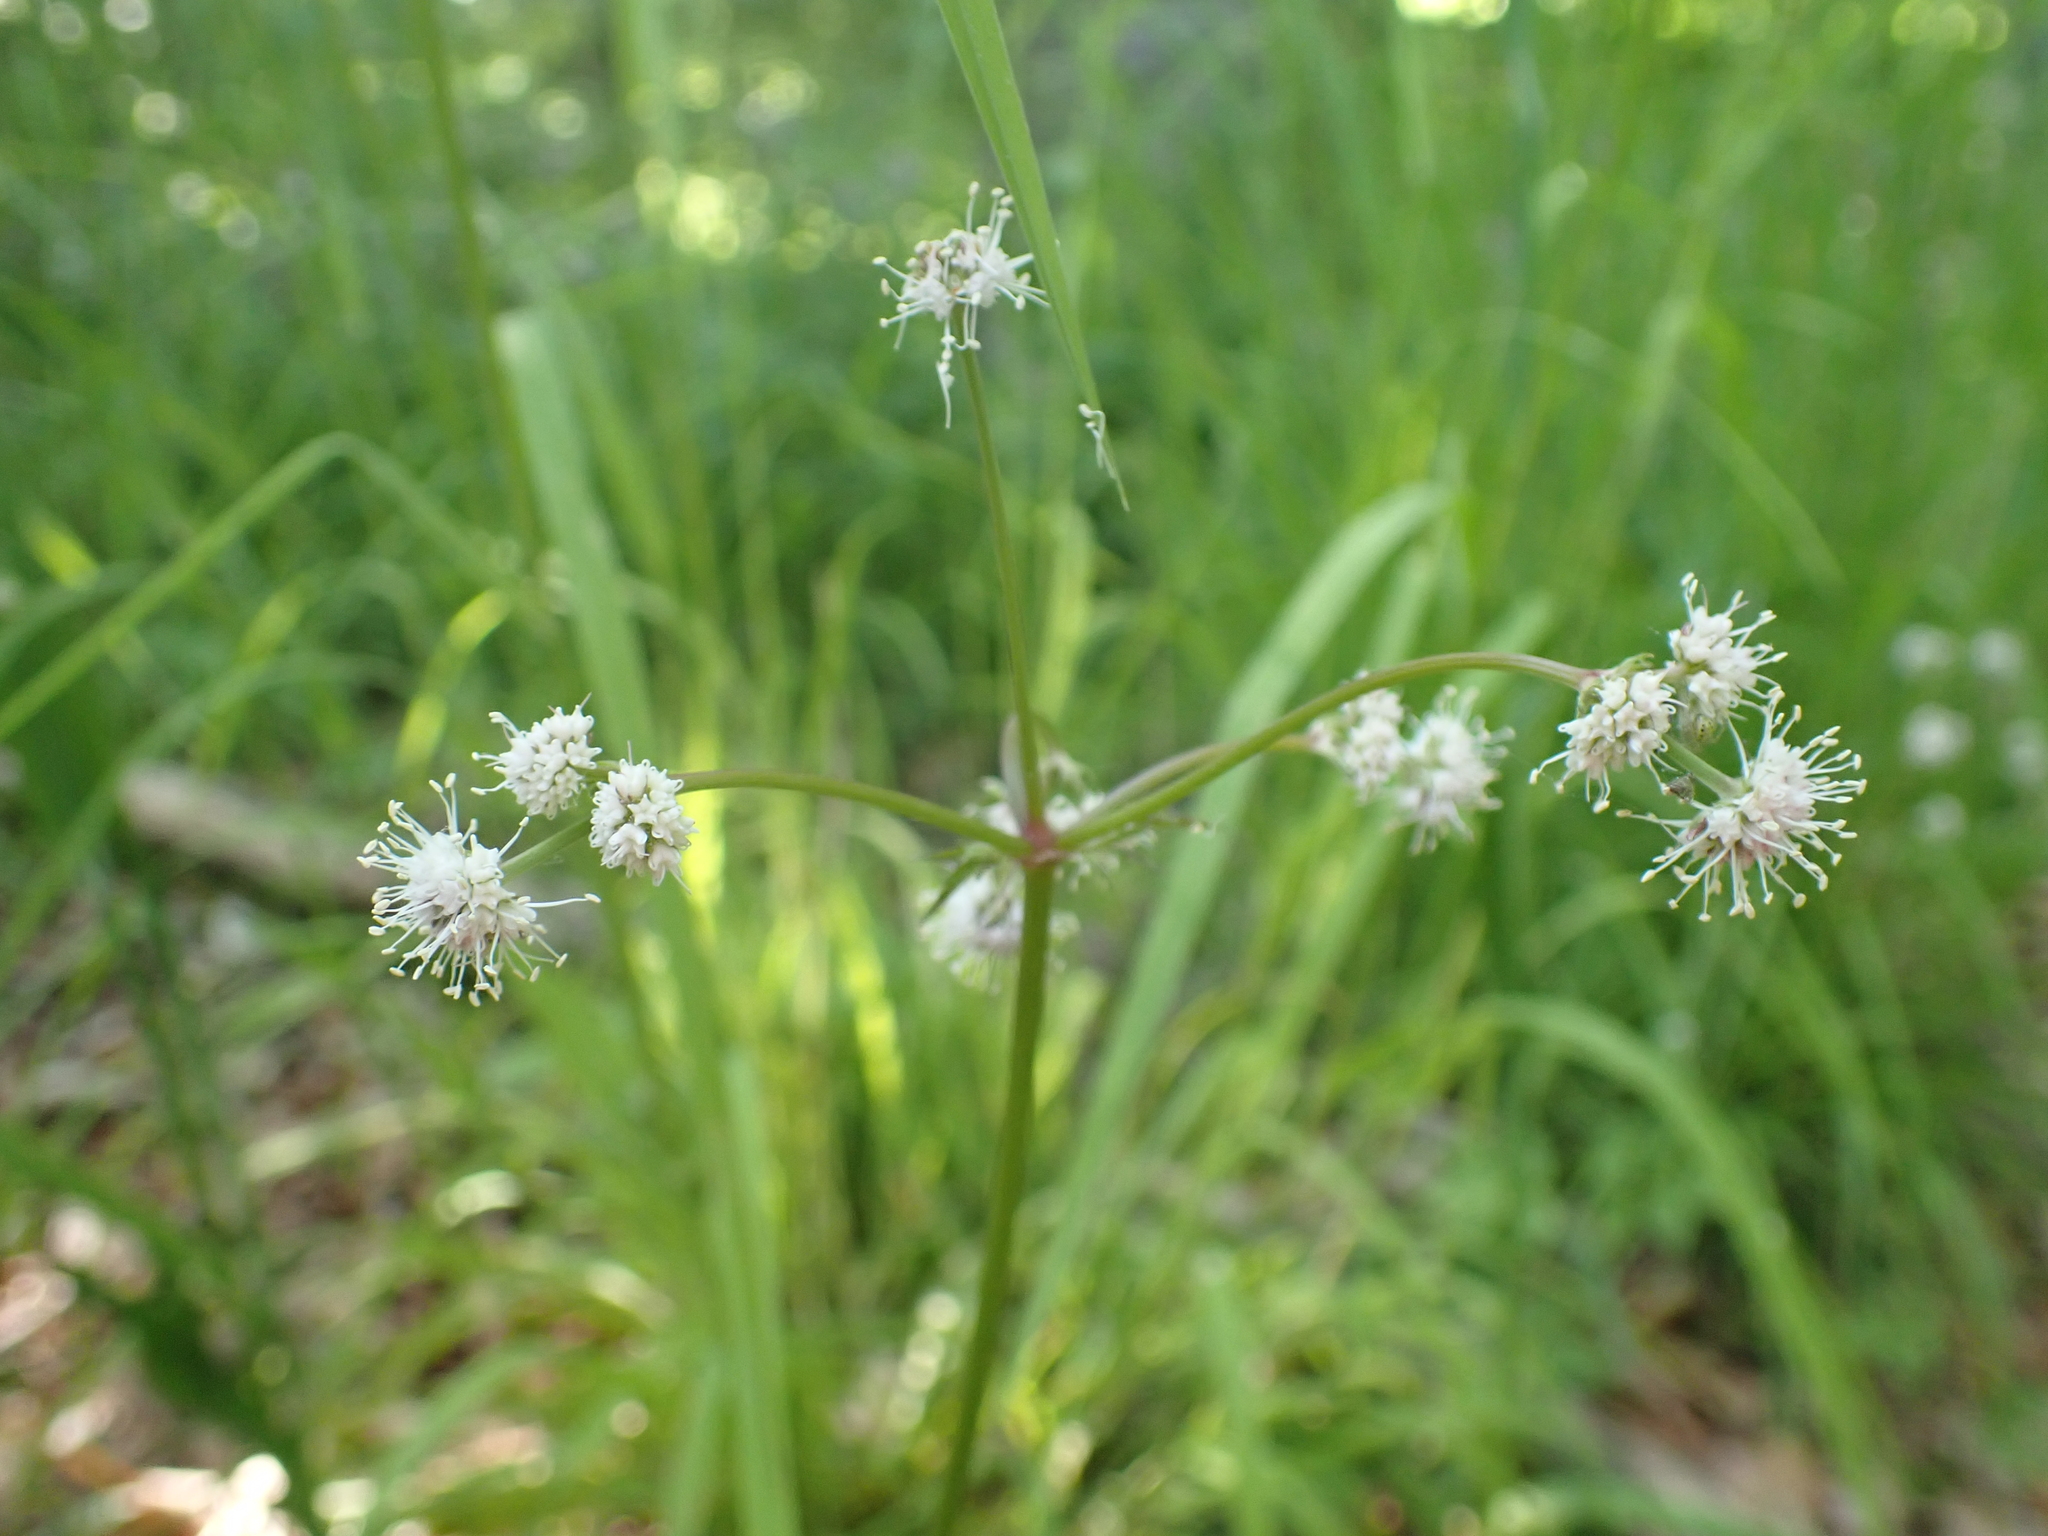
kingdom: Plantae
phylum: Tracheophyta
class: Magnoliopsida
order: Apiales
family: Apiaceae
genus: Sanicula
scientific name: Sanicula europaea
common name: Sanicle
